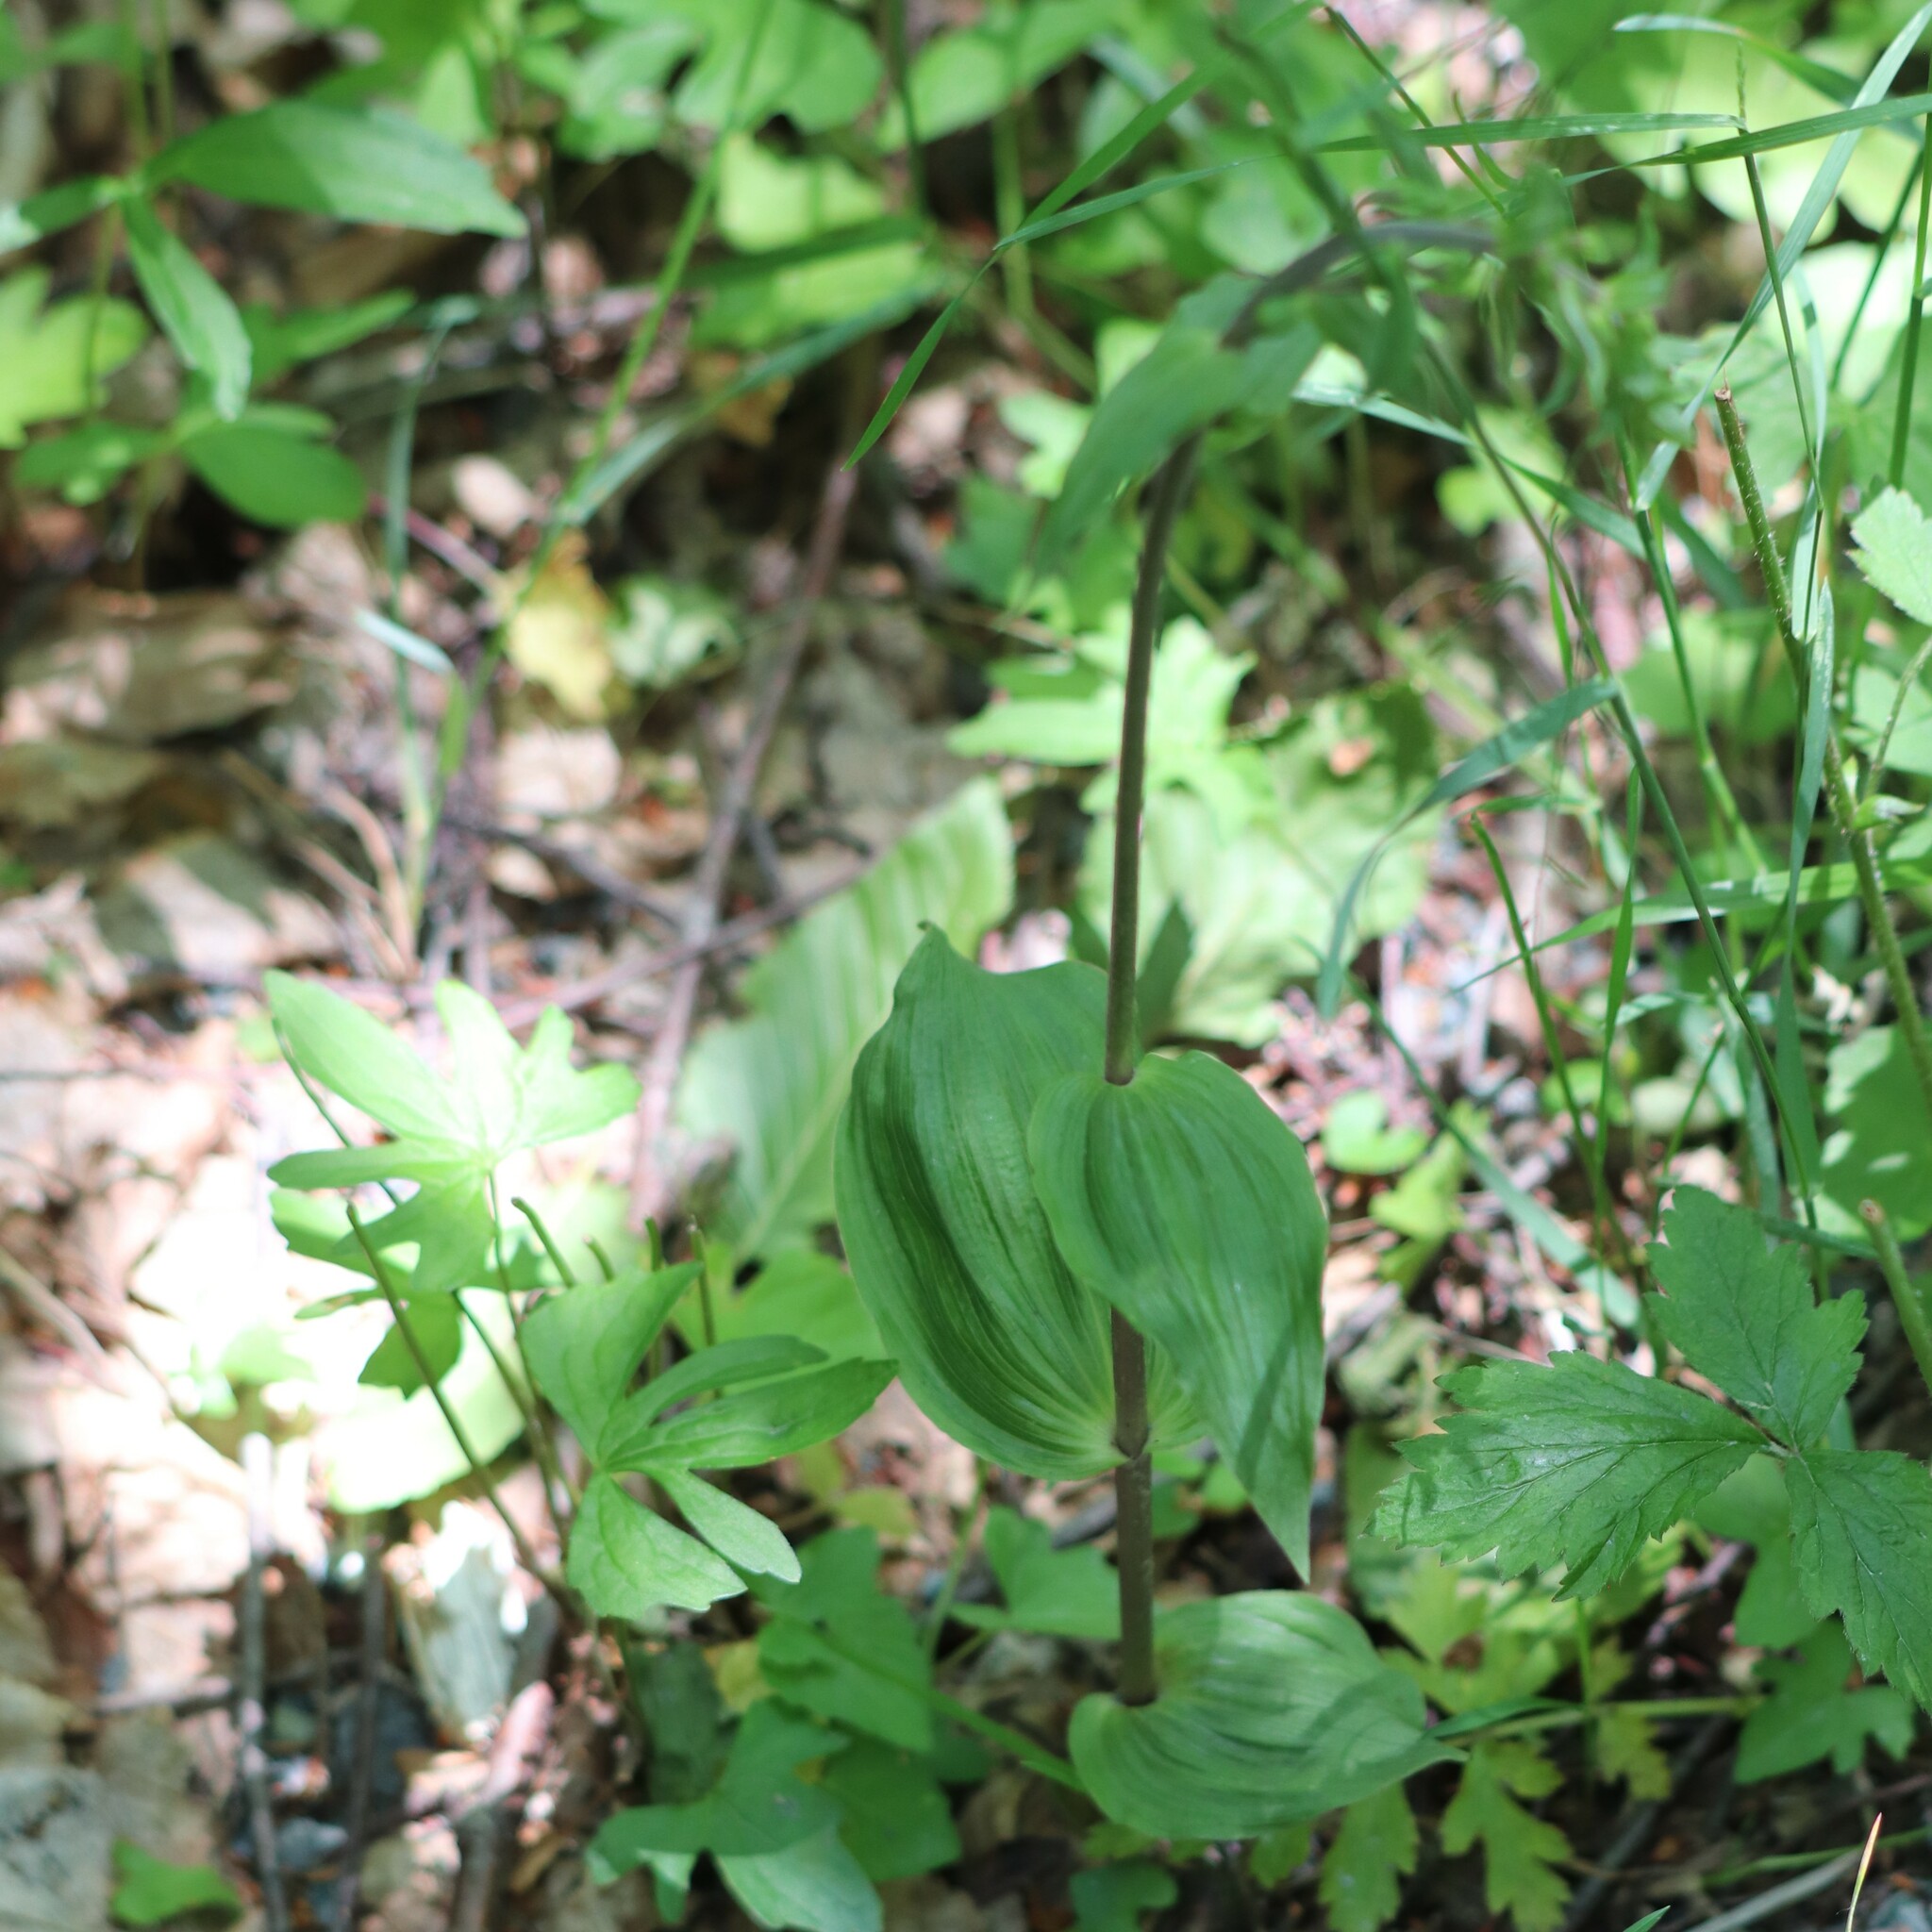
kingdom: Plantae
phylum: Tracheophyta
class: Liliopsida
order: Asparagales
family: Orchidaceae
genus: Epipactis
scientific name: Epipactis helleborine
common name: Broad-leaved helleborine
